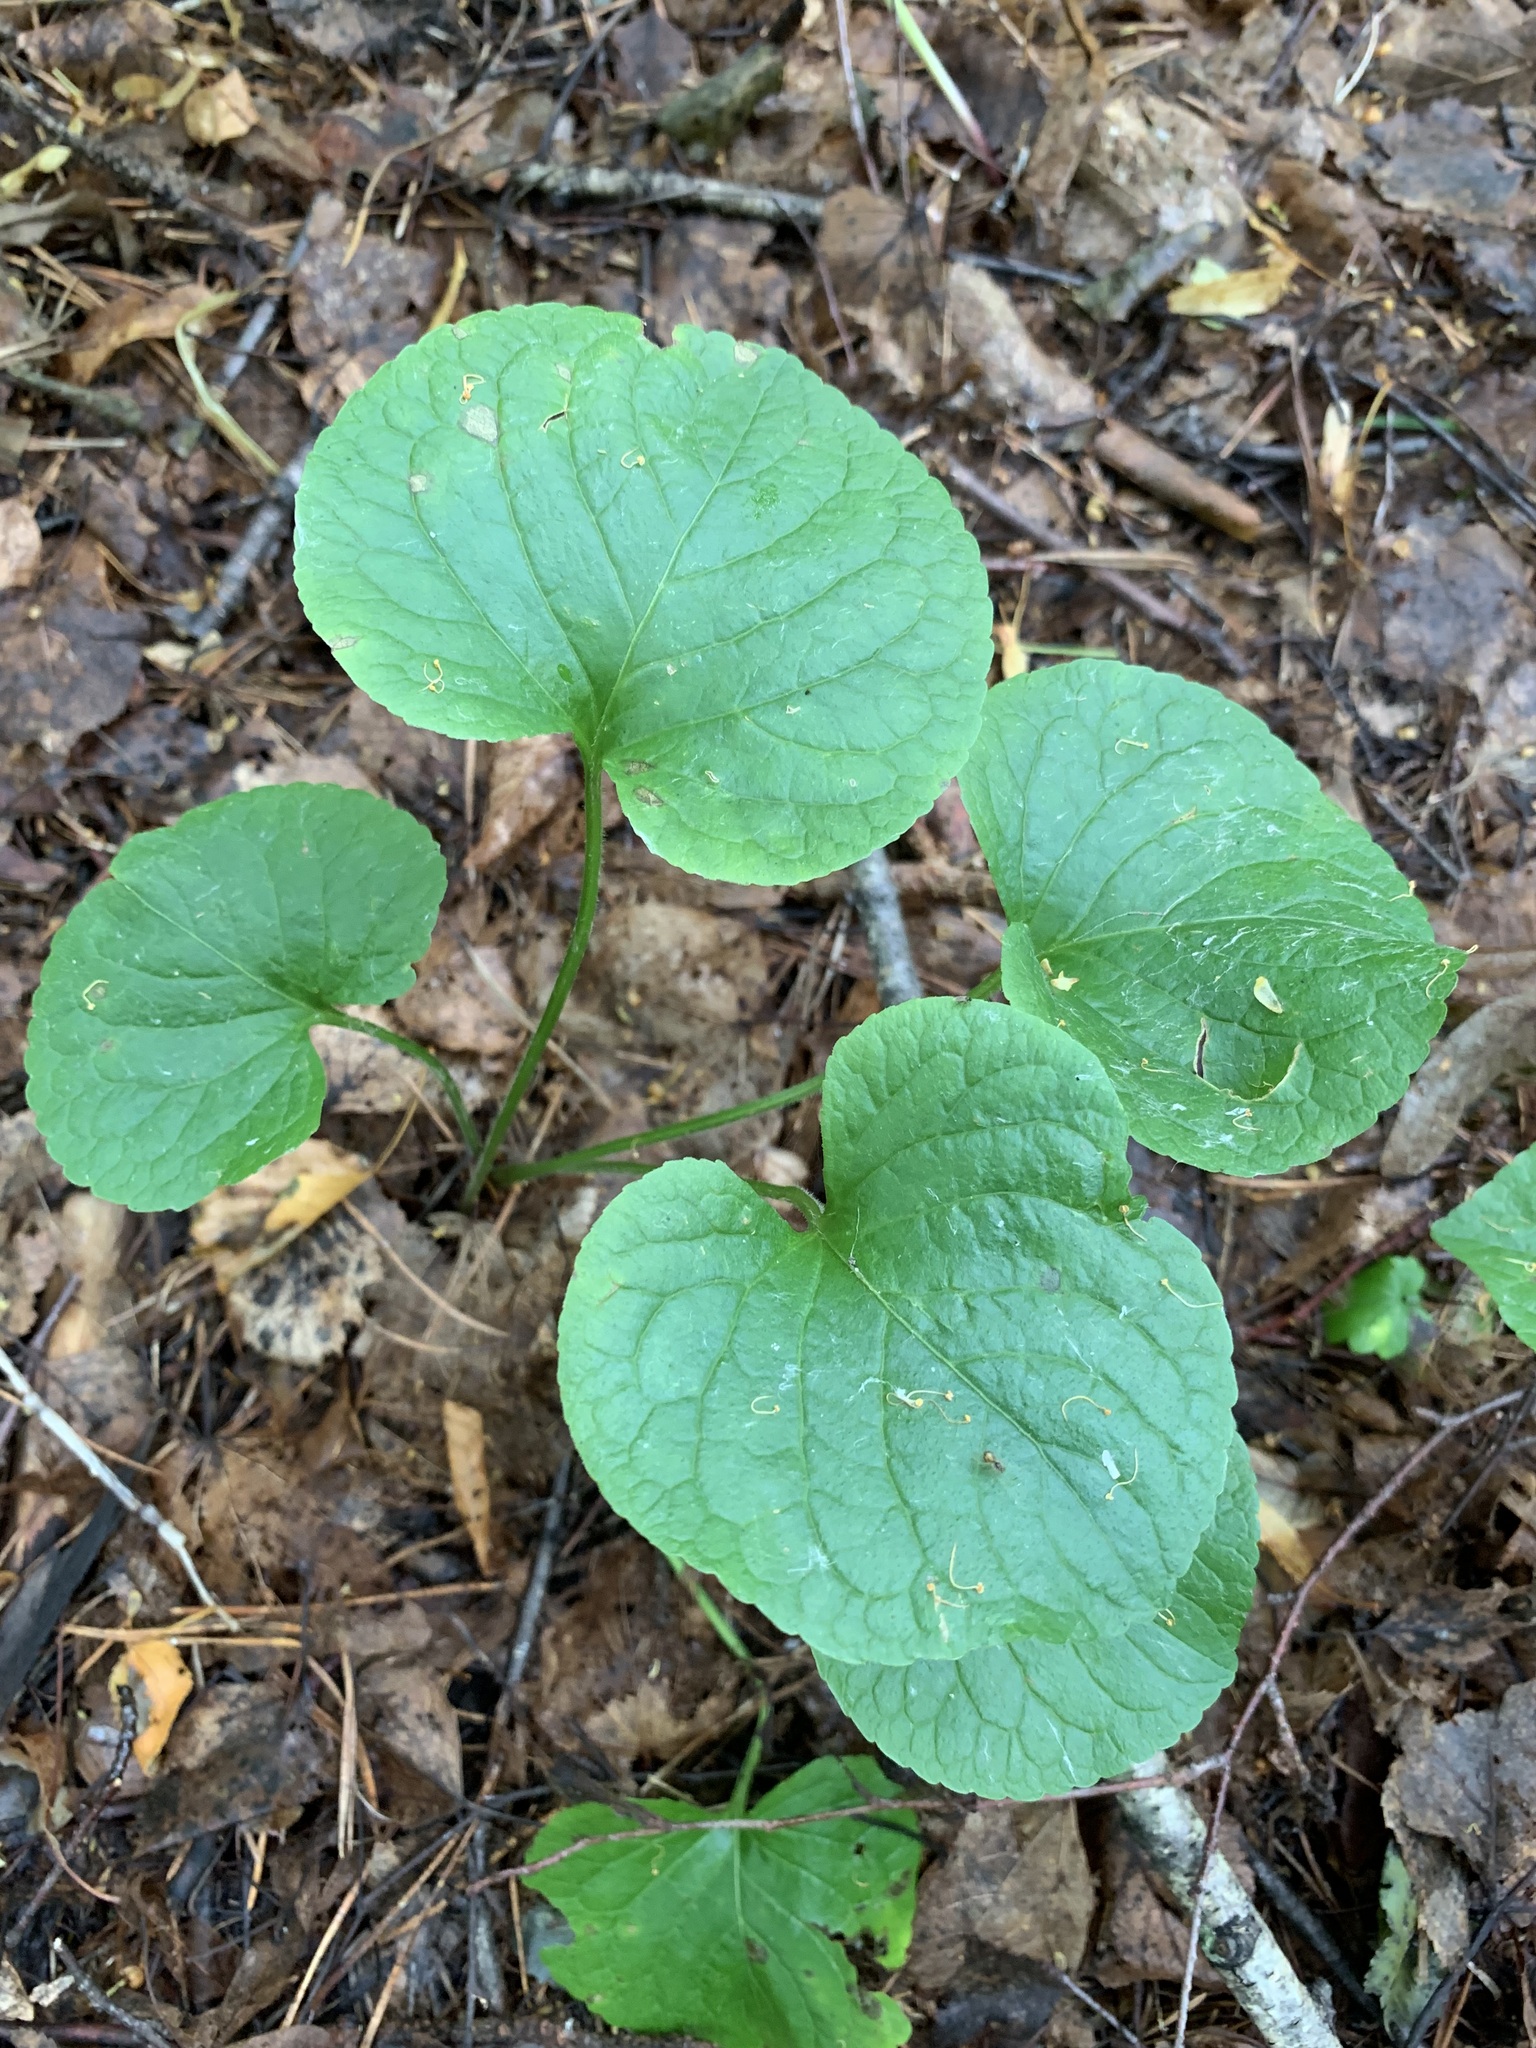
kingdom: Plantae
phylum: Tracheophyta
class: Magnoliopsida
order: Malpighiales
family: Violaceae
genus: Viola
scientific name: Viola mirabilis
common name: Wonder violet
